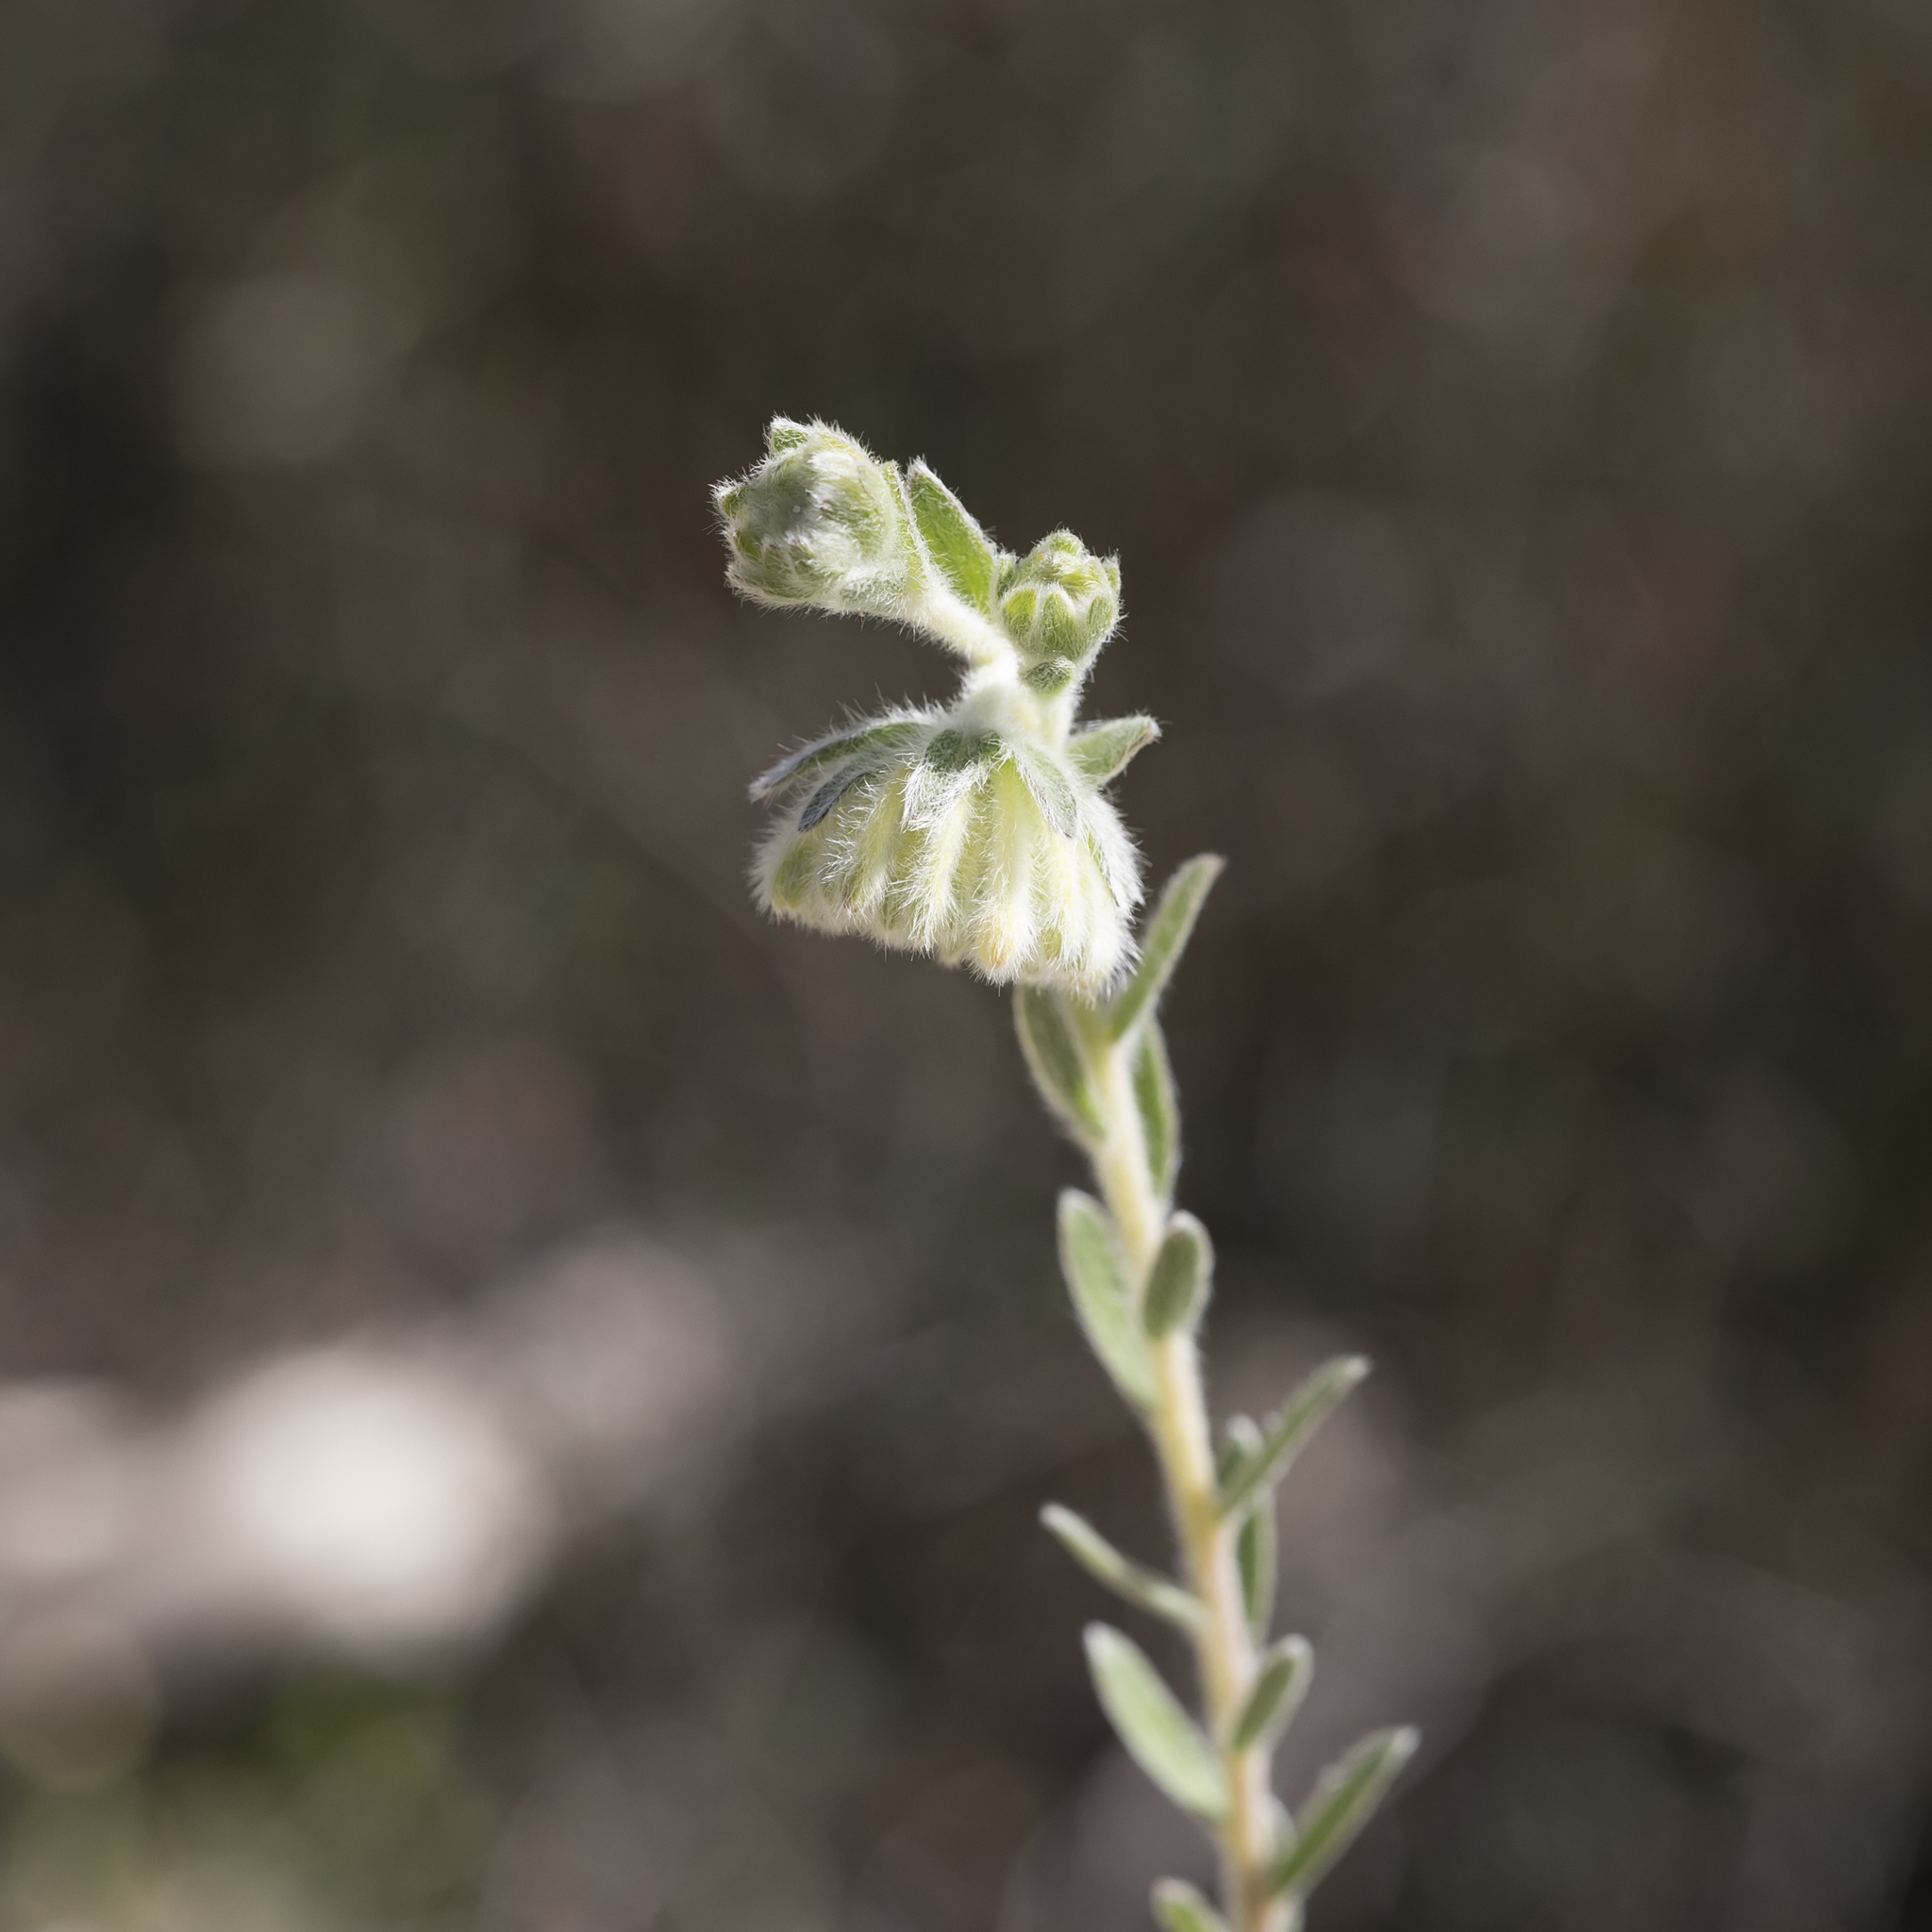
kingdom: Plantae
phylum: Tracheophyta
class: Magnoliopsida
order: Malvales
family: Thymelaeaceae
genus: Pimelea
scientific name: Pimelea octophylla
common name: Woolly riceflower
